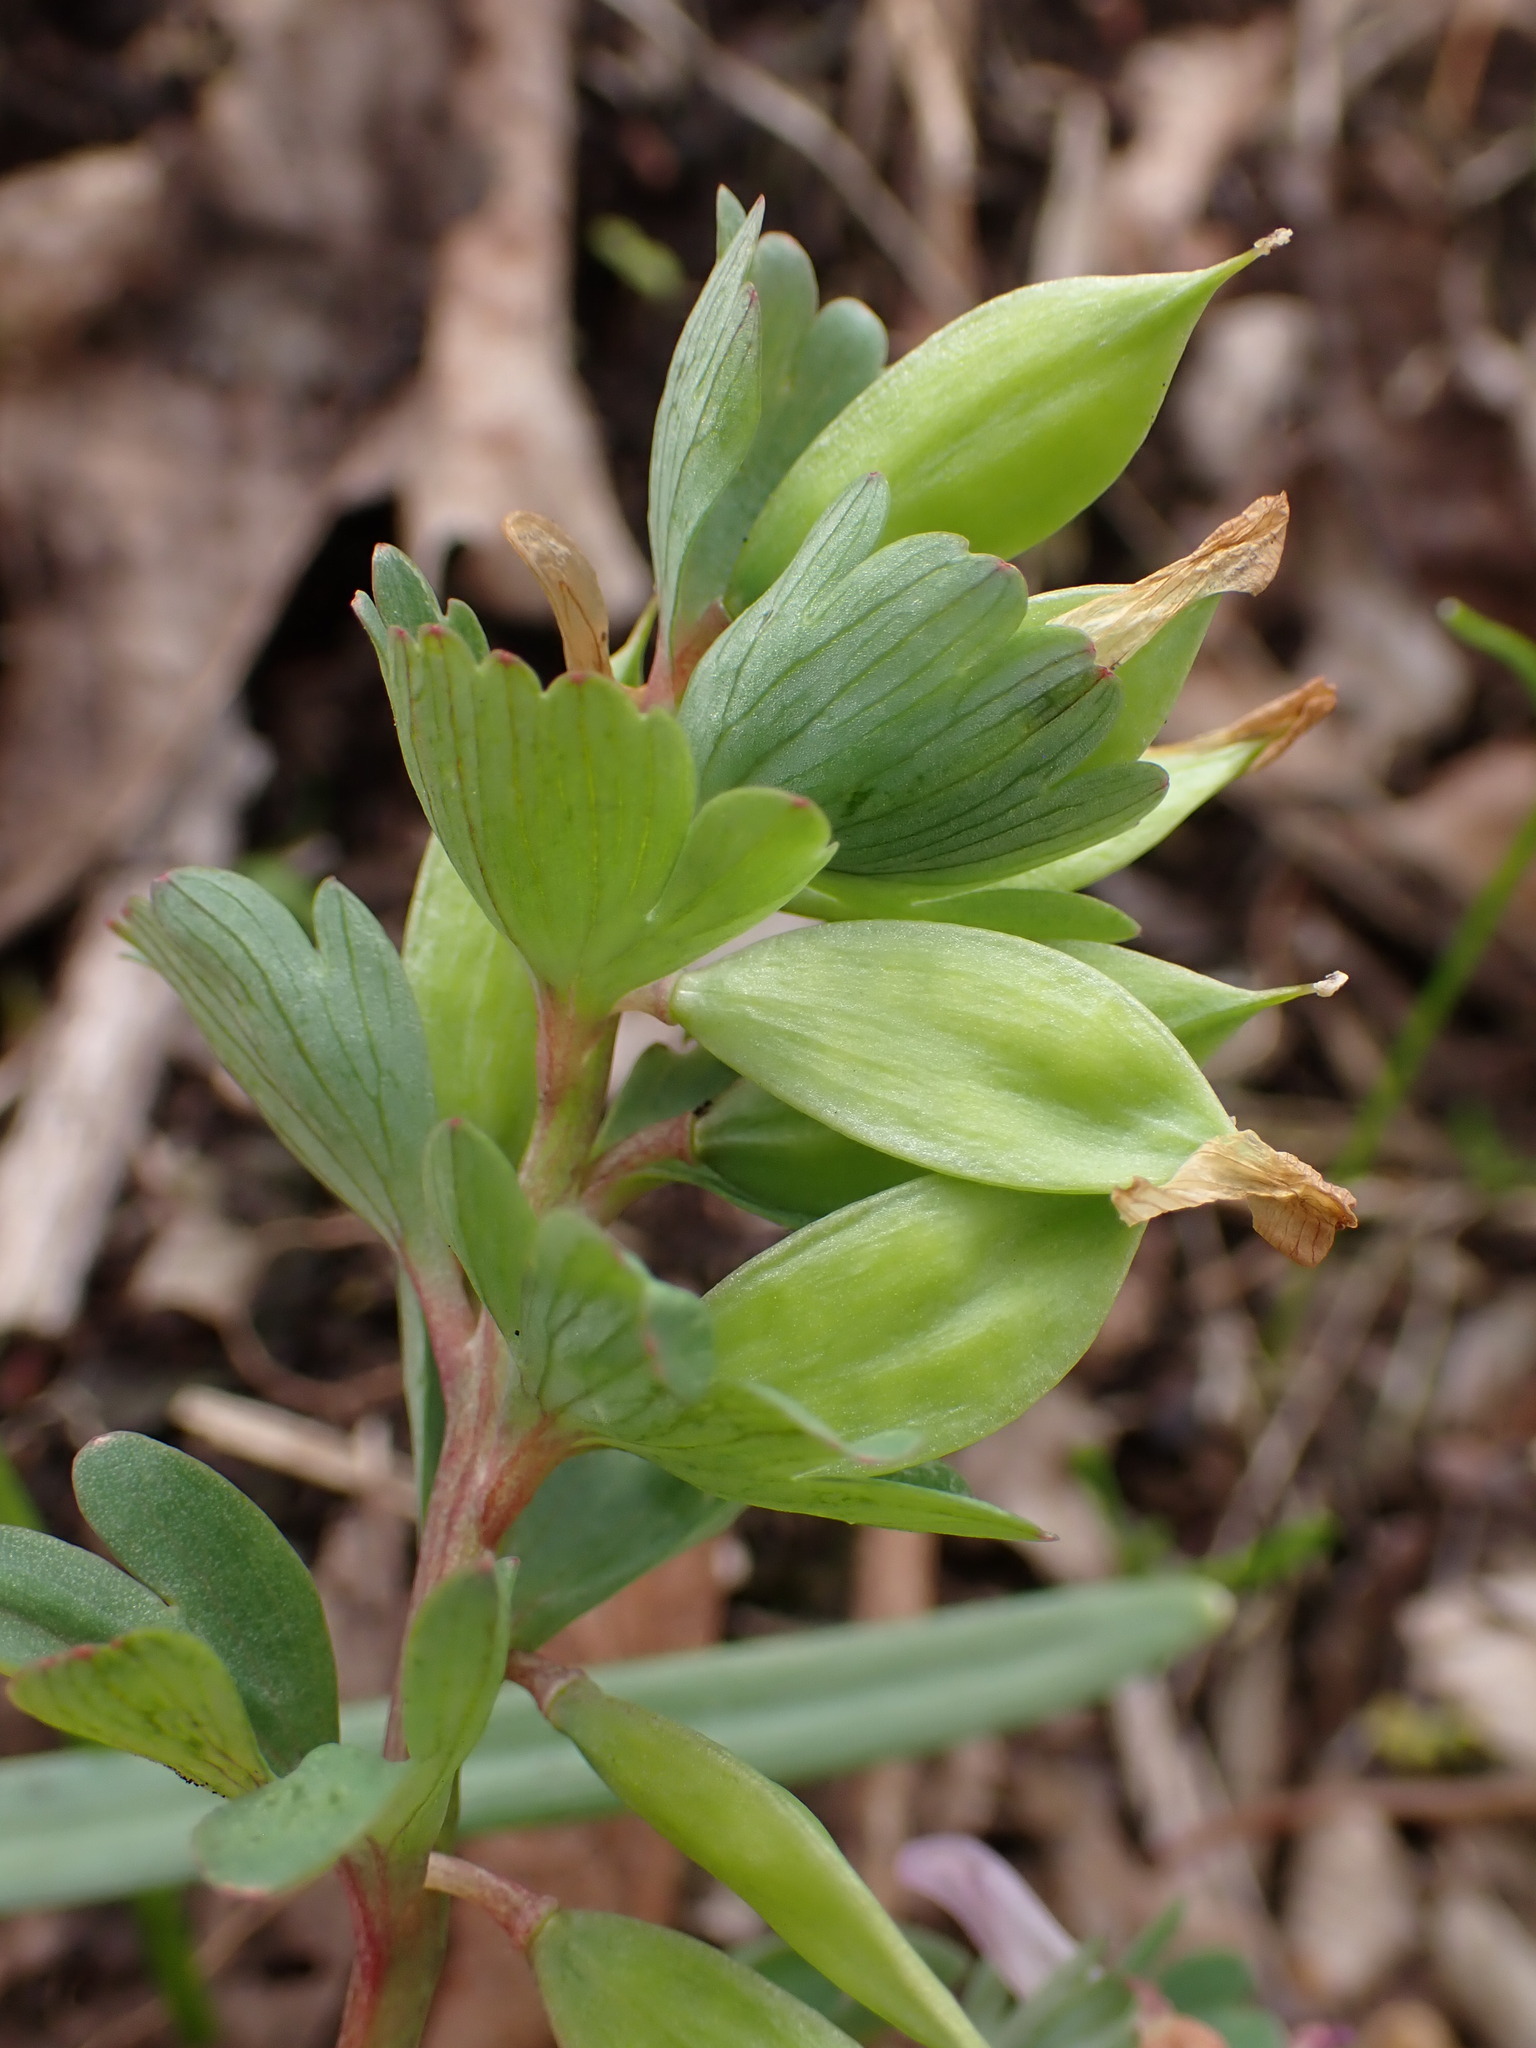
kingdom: Plantae
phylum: Tracheophyta
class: Magnoliopsida
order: Ranunculales
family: Papaveraceae
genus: Corydalis
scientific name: Corydalis pumila
